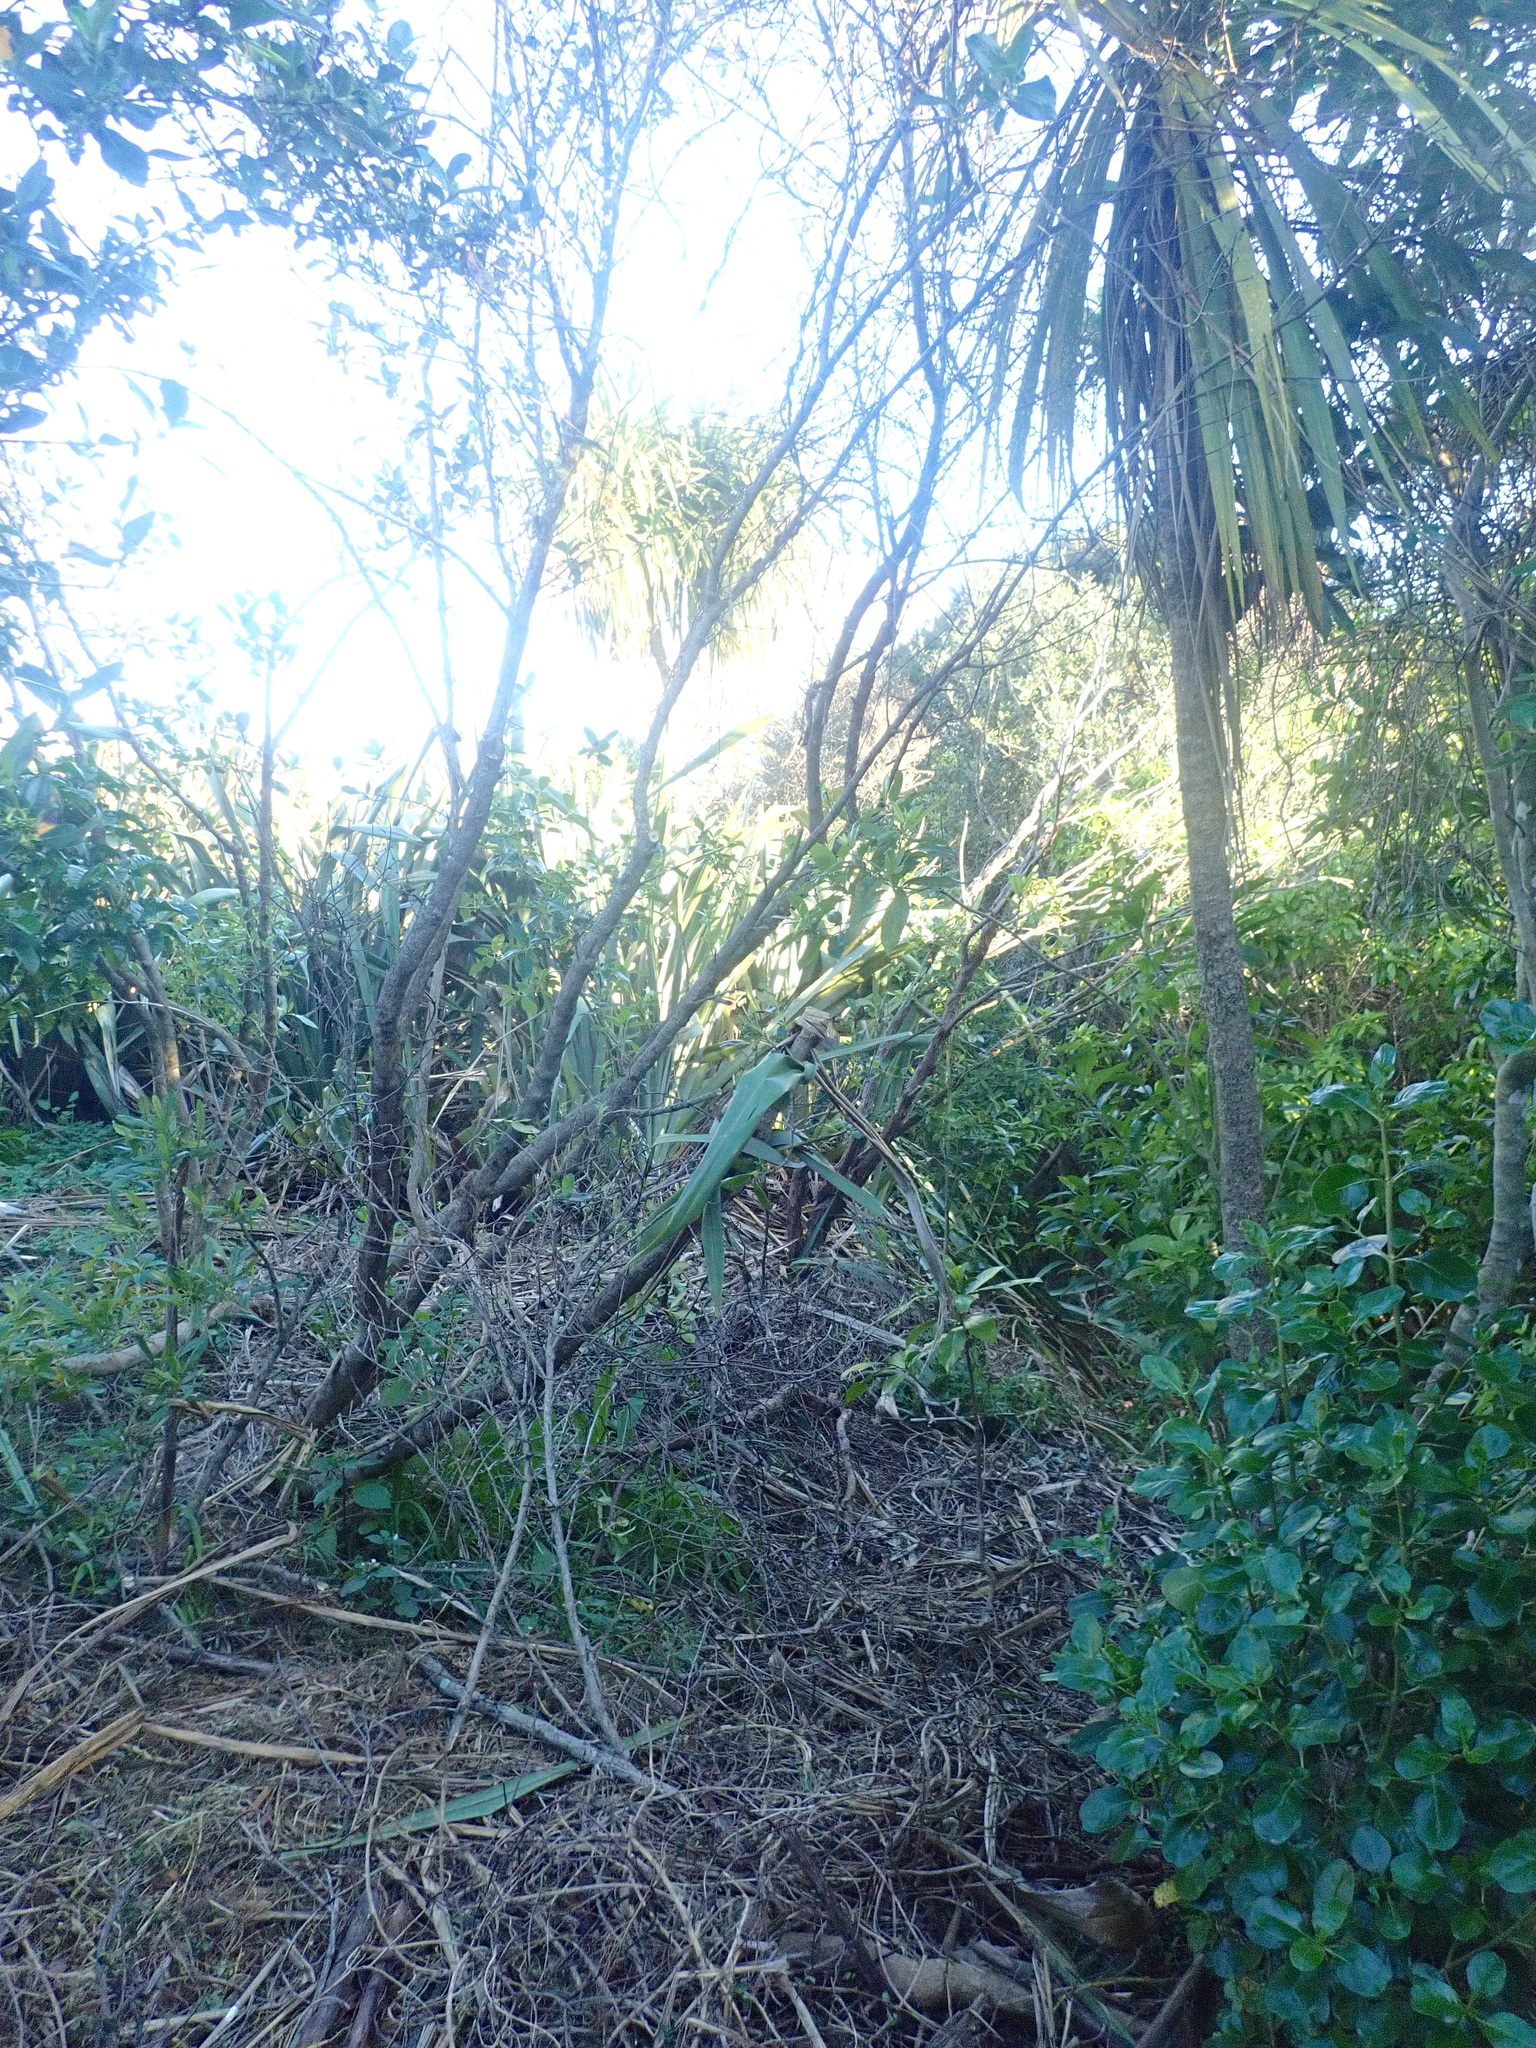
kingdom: Plantae
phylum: Tracheophyta
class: Liliopsida
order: Asparagales
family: Asparagaceae
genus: Cordyline
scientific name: Cordyline australis
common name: Cabbage-palm
